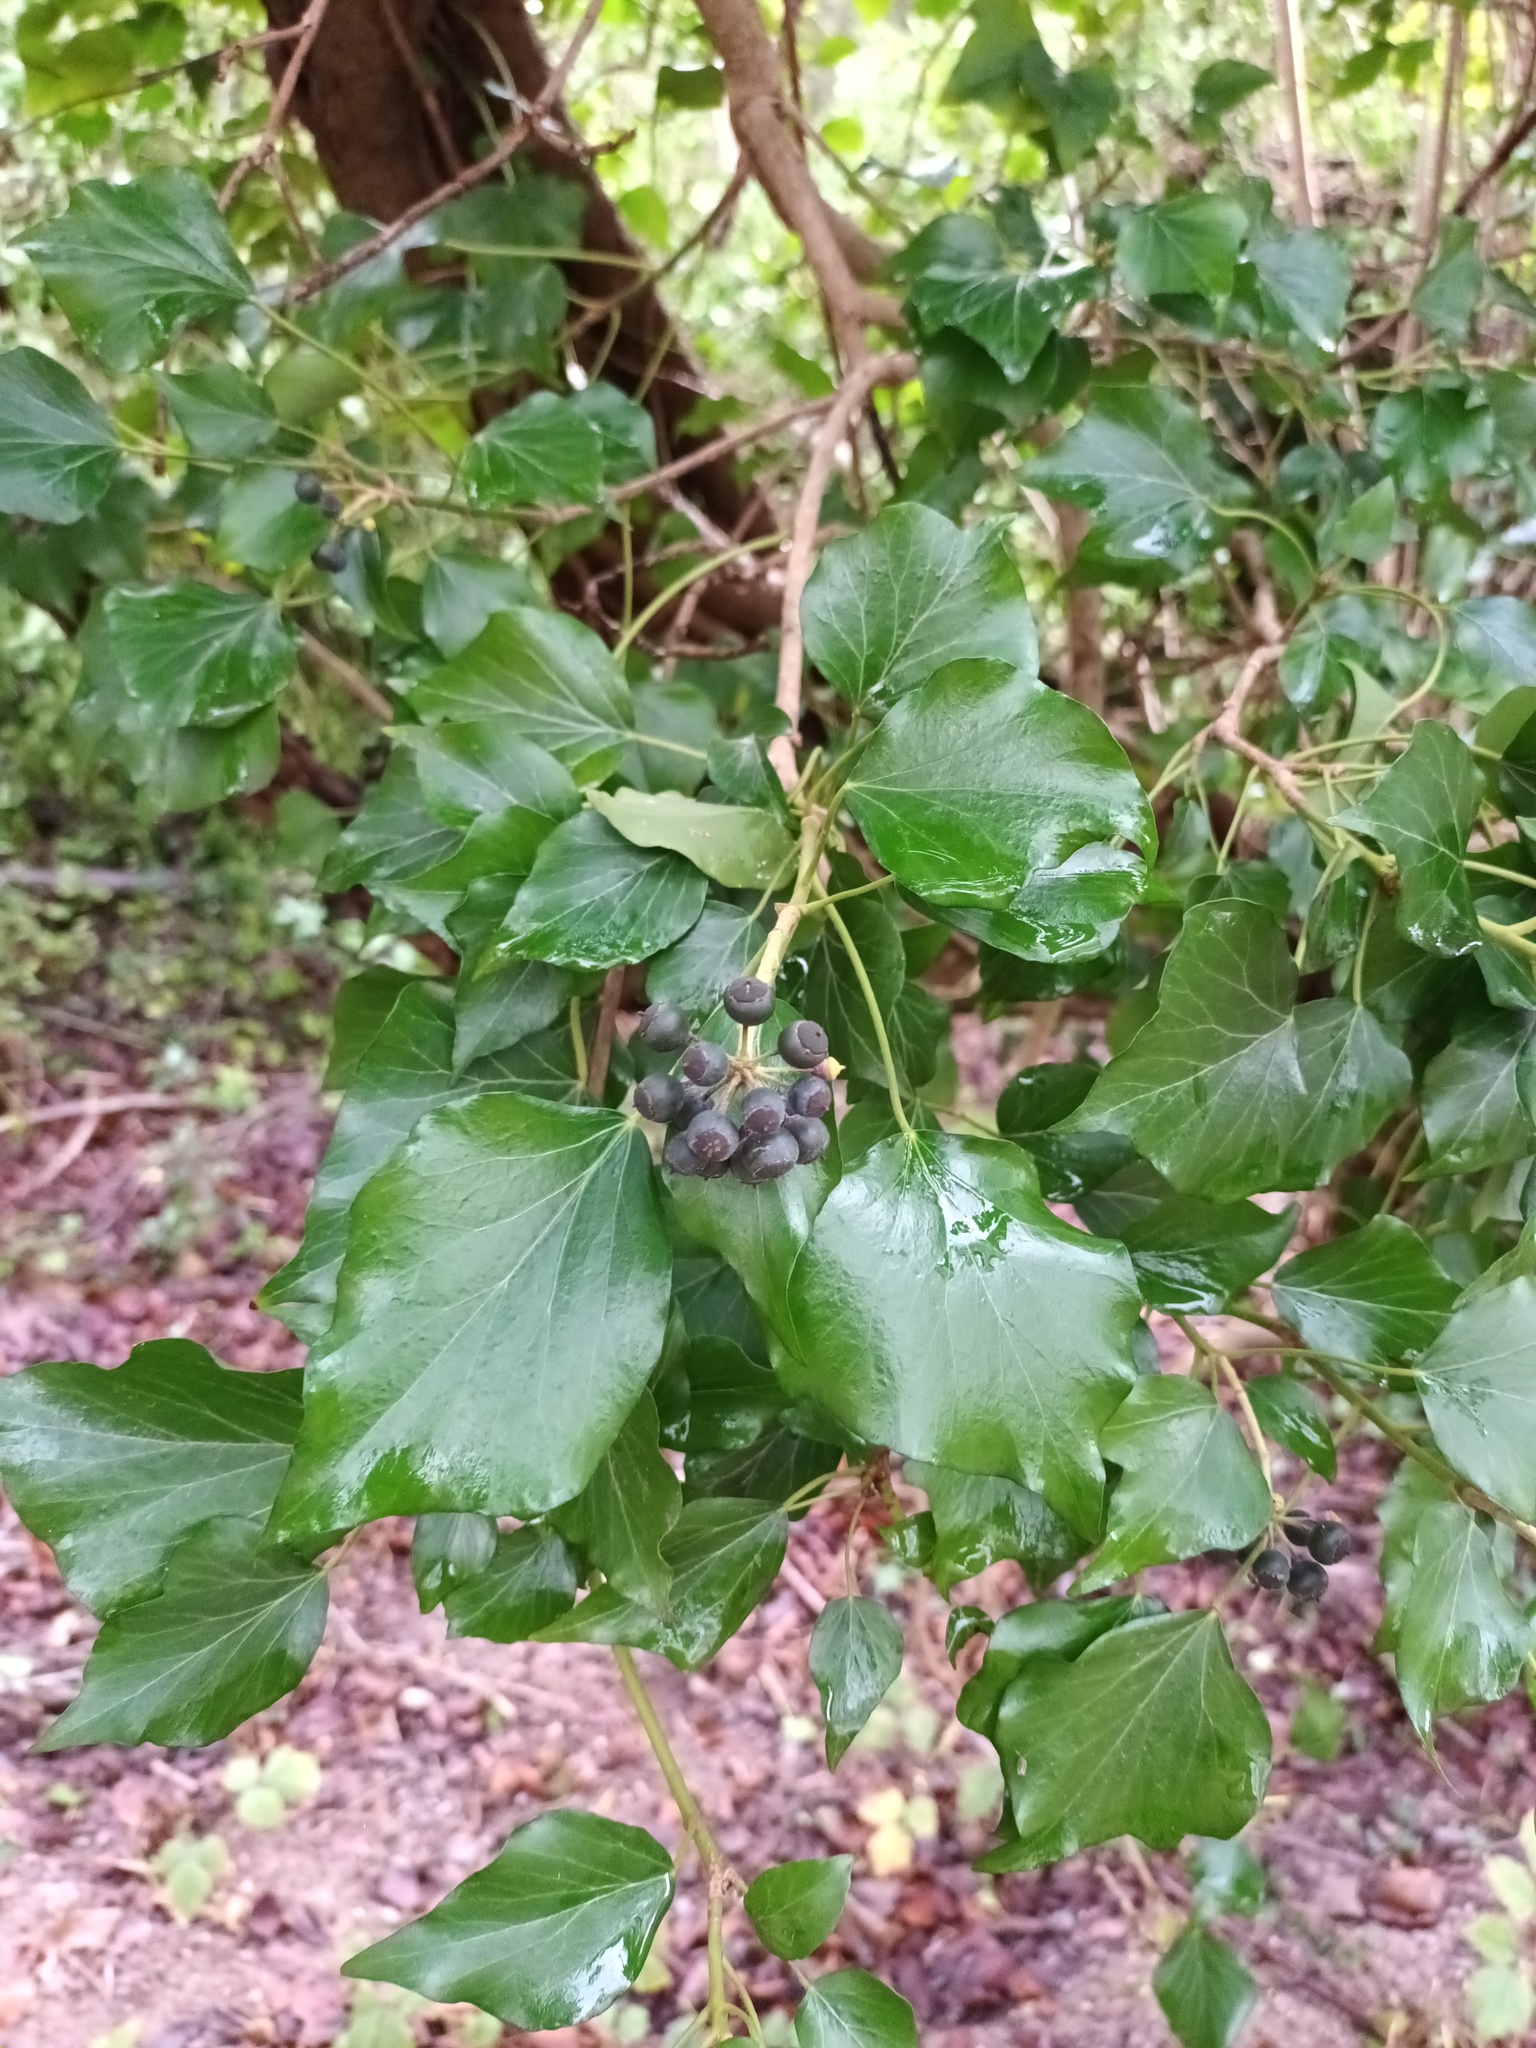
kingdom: Plantae
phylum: Tracheophyta
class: Magnoliopsida
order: Apiales
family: Araliaceae
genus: Hedera
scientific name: Hedera helix
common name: Ivy
